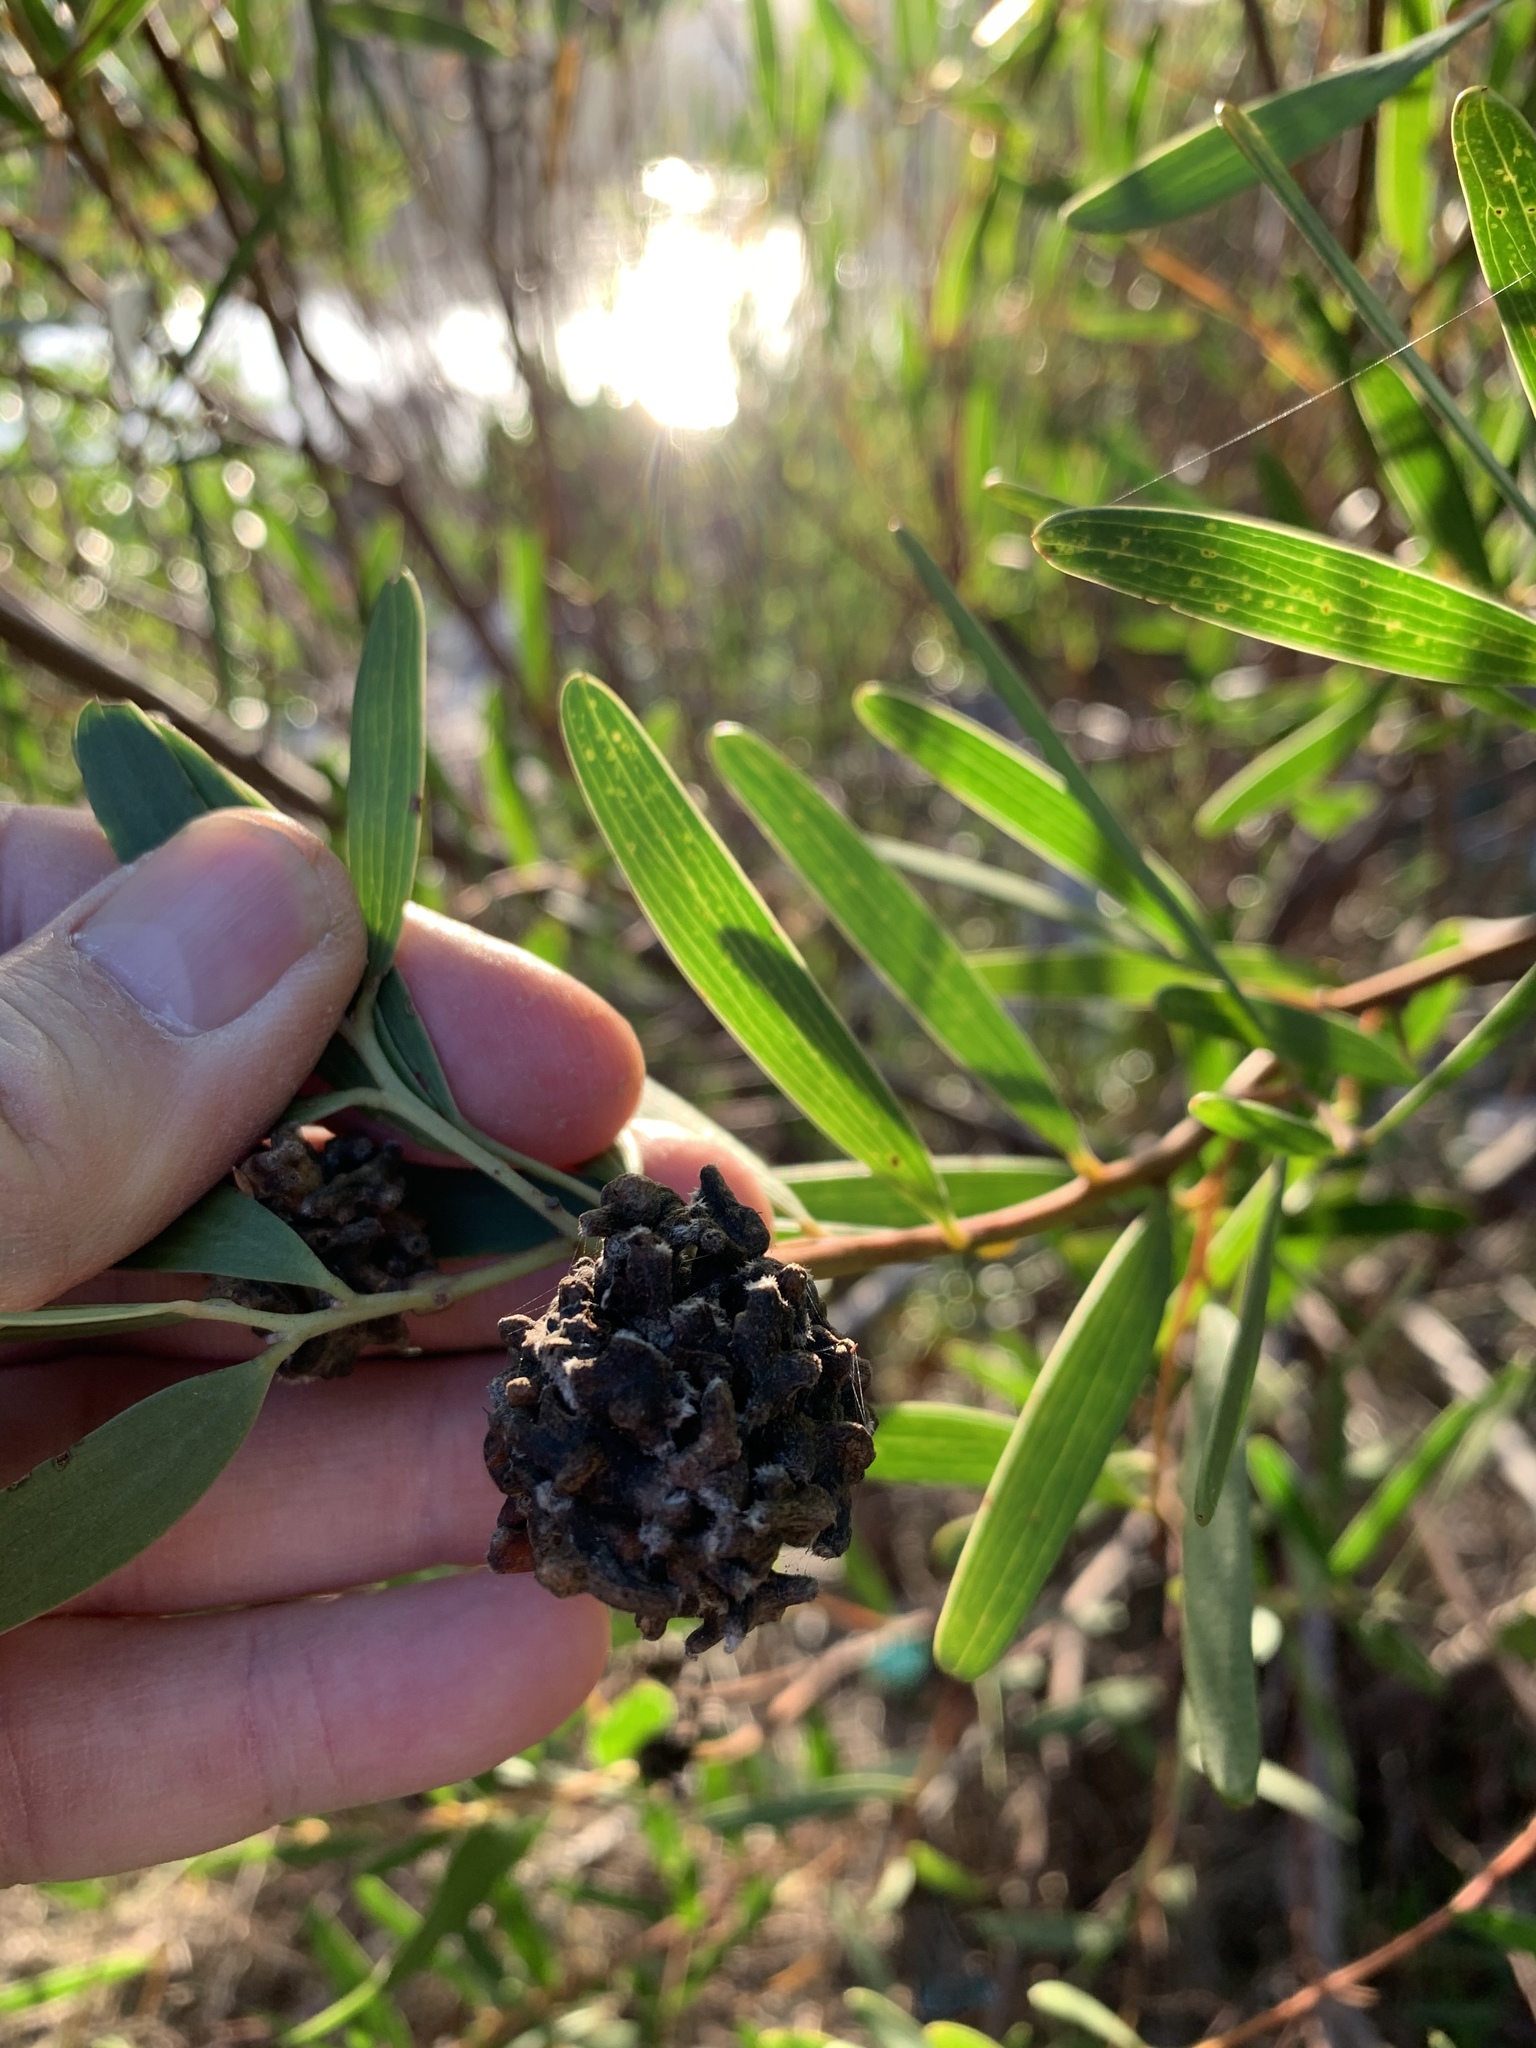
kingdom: Animalia
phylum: Arthropoda
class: Insecta
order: Diptera
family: Cecidomyiidae
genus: Dasineura
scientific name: Dasineura dielsi
